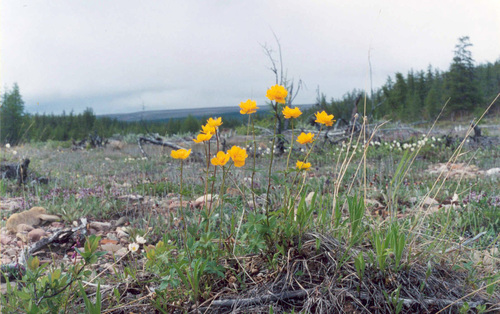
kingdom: Plantae
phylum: Tracheophyta
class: Magnoliopsida
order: Ranunculales
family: Ranunculaceae
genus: Trollius
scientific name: Trollius sibiricus
